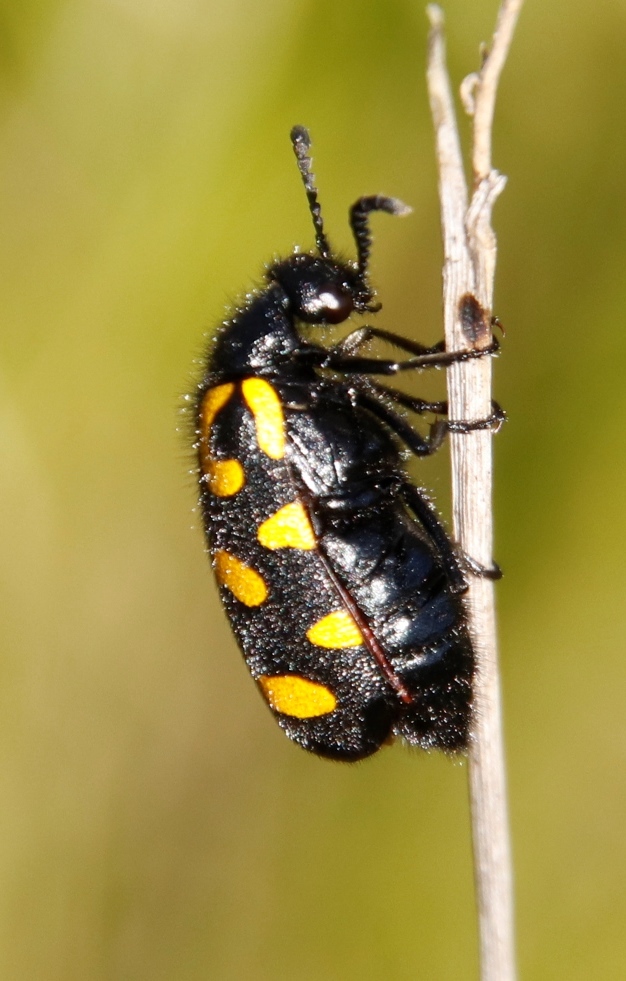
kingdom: Animalia
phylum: Arthropoda
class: Insecta
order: Coleoptera
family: Meloidae
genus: Ceroctis
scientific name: Ceroctis capensis
